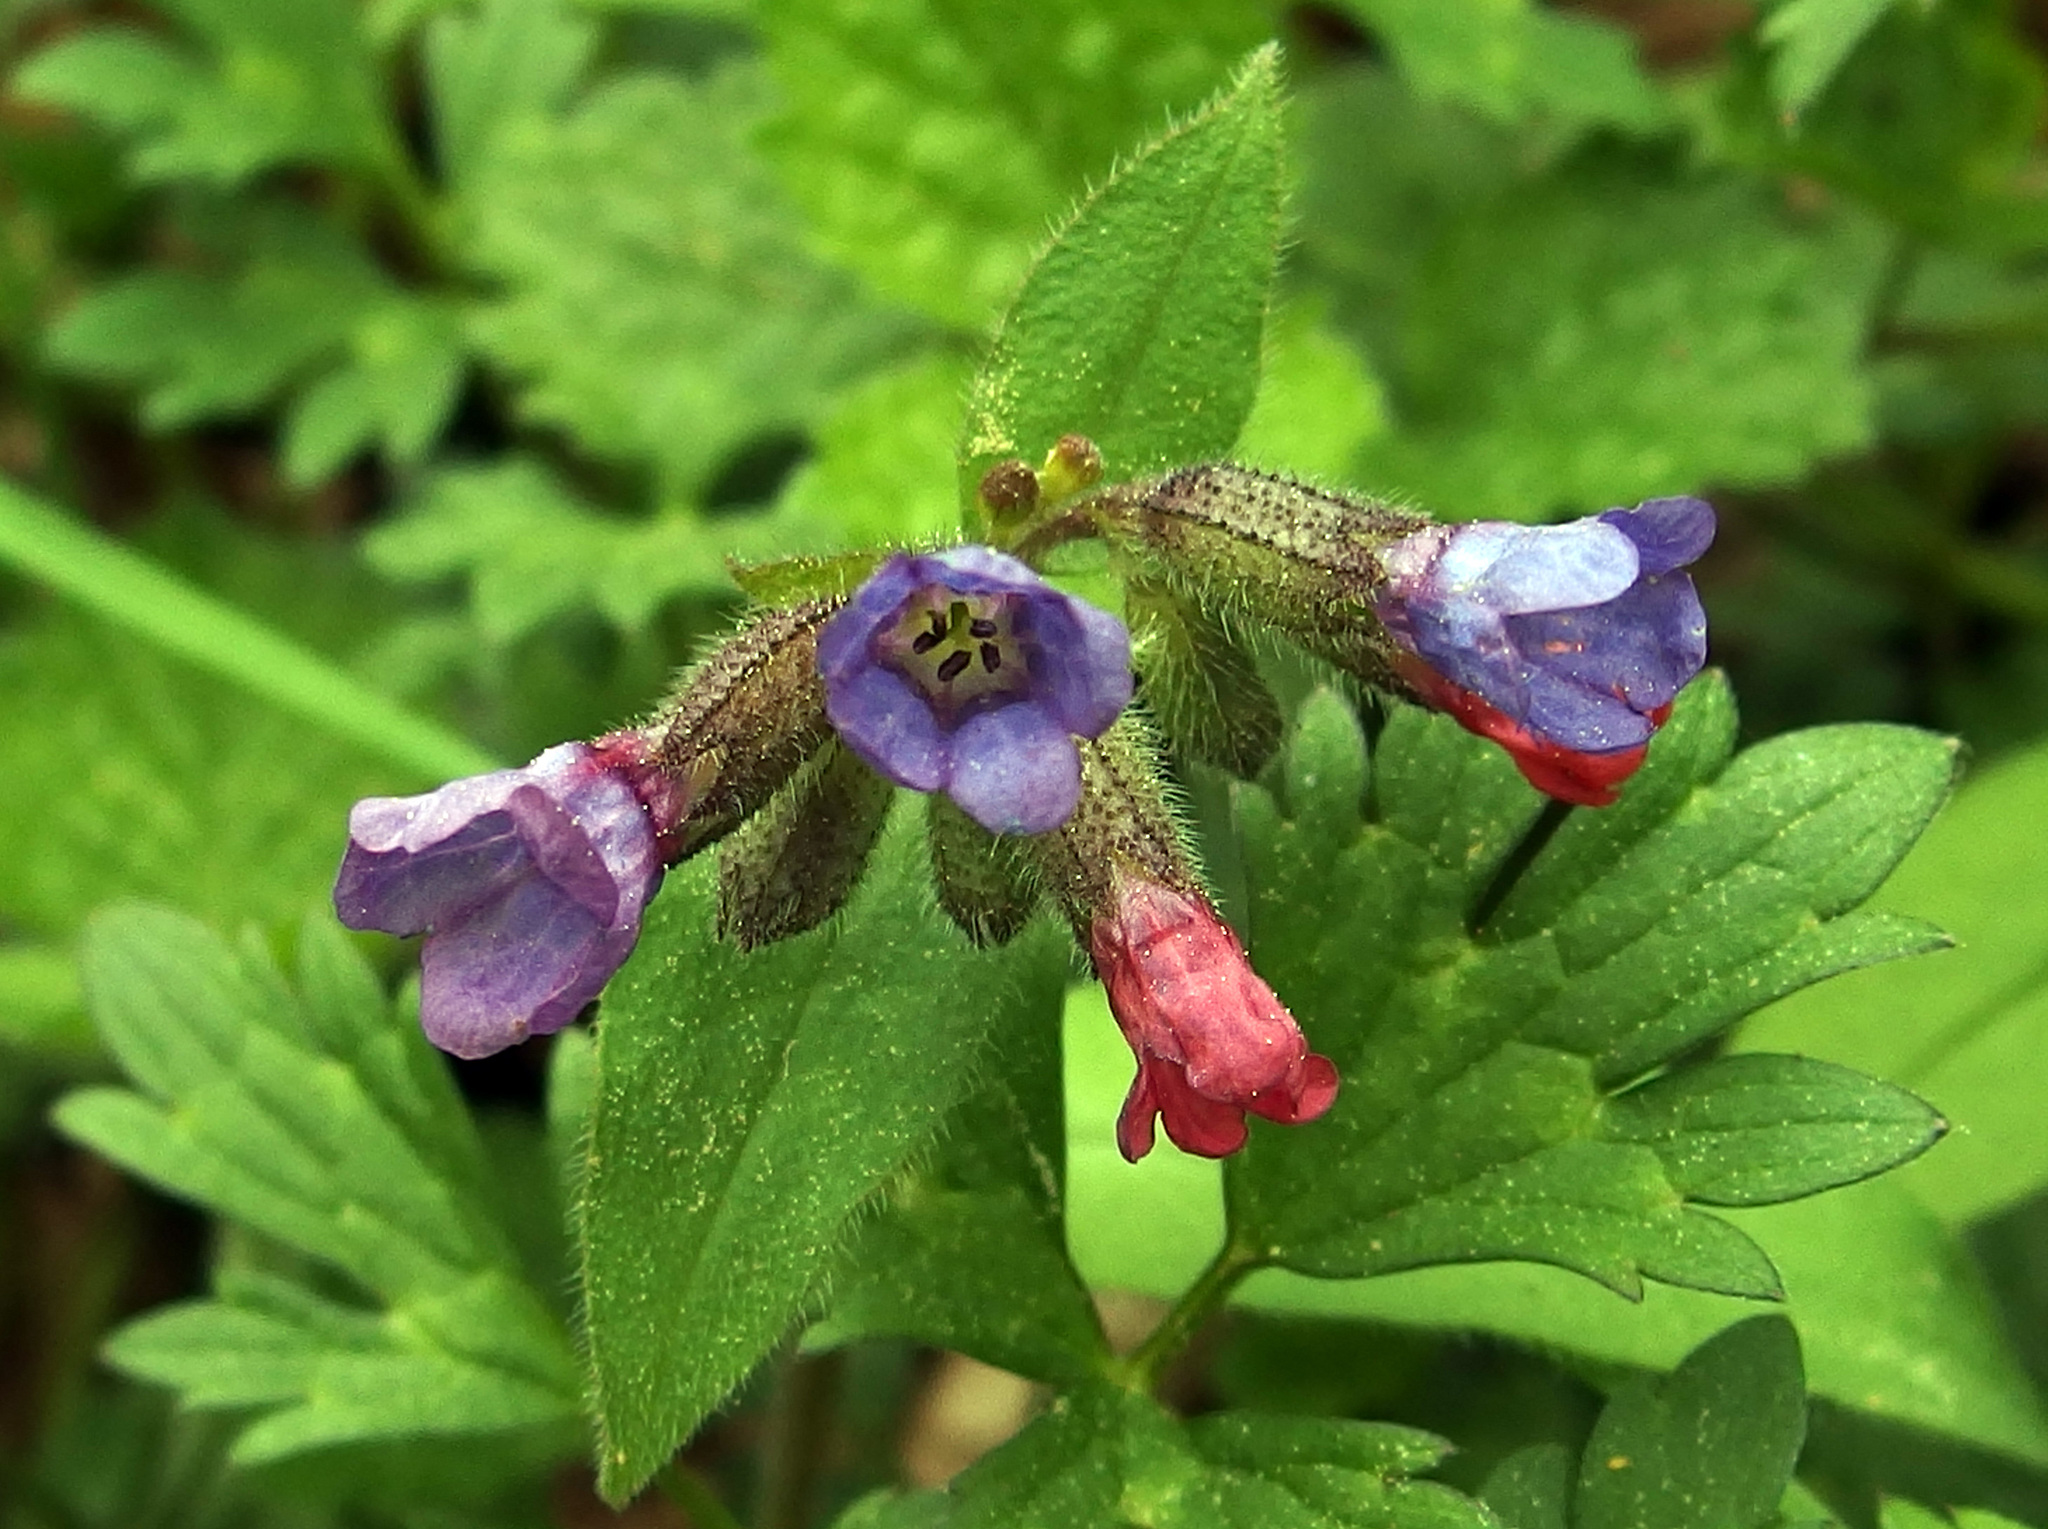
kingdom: Plantae
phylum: Tracheophyta
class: Magnoliopsida
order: Boraginales
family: Boraginaceae
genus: Pulmonaria
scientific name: Pulmonaria obscura
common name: Suffolk lungwort
